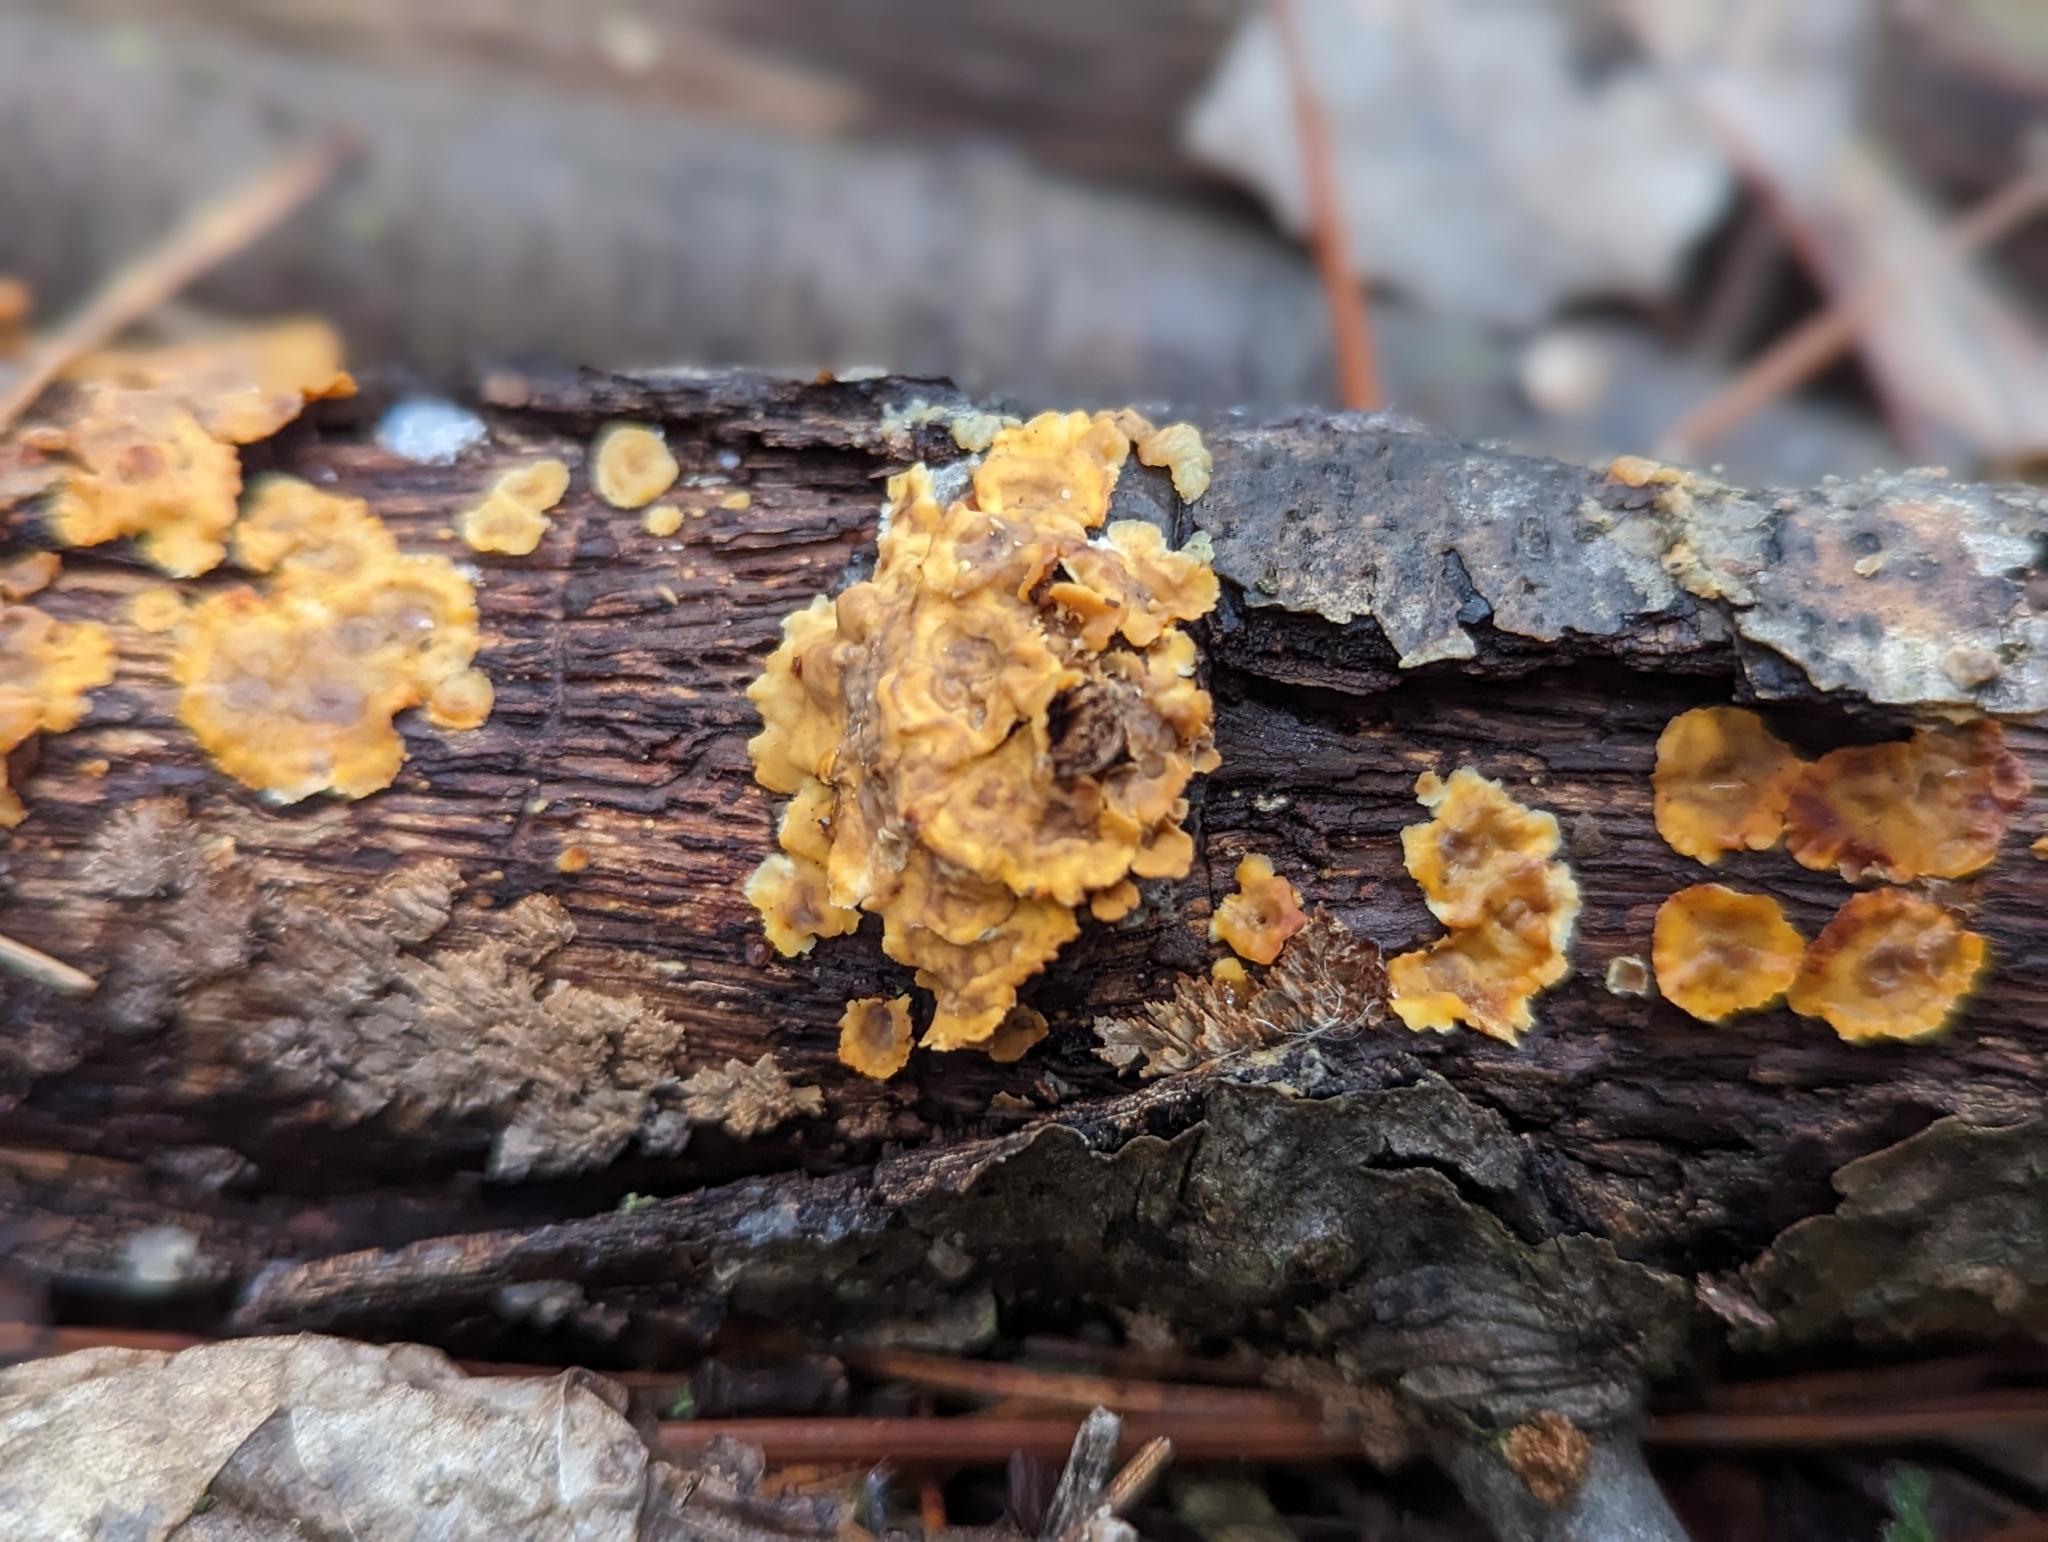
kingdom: Fungi
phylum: Basidiomycota
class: Agaricomycetes
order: Russulales
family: Stereaceae
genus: Stereum
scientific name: Stereum complicatum
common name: Crowded parchment
